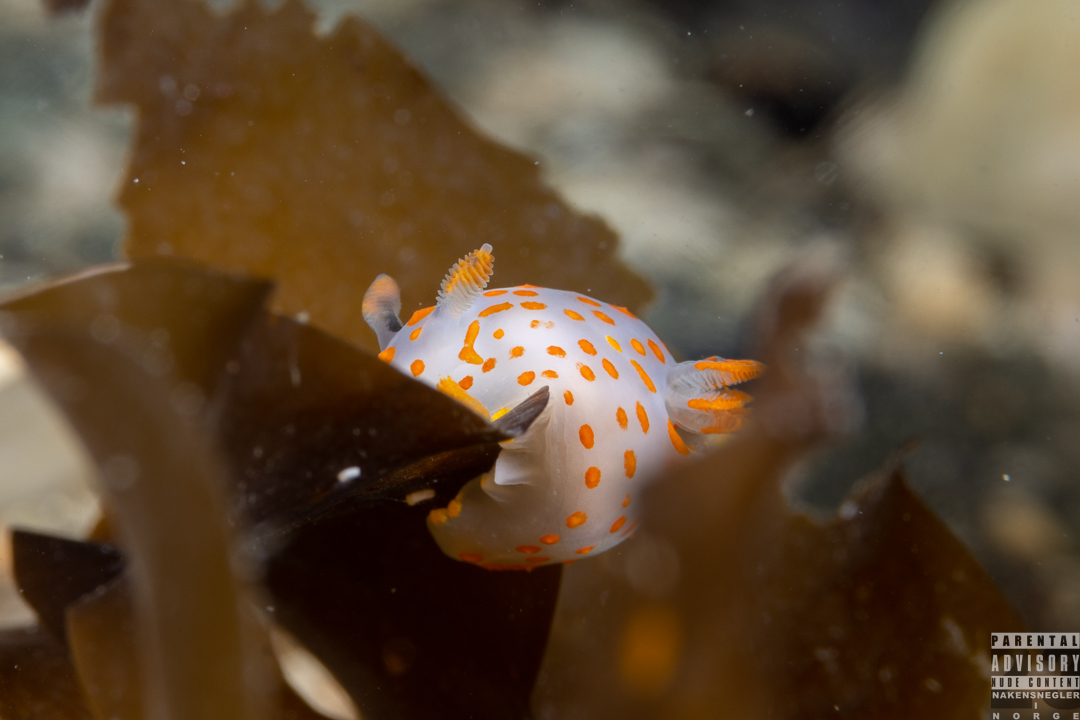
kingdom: Animalia
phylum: Mollusca
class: Gastropoda
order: Nudibranchia
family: Polyceridae
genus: Polycera
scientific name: Polycera quadrilineata
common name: Four-striped polycera
